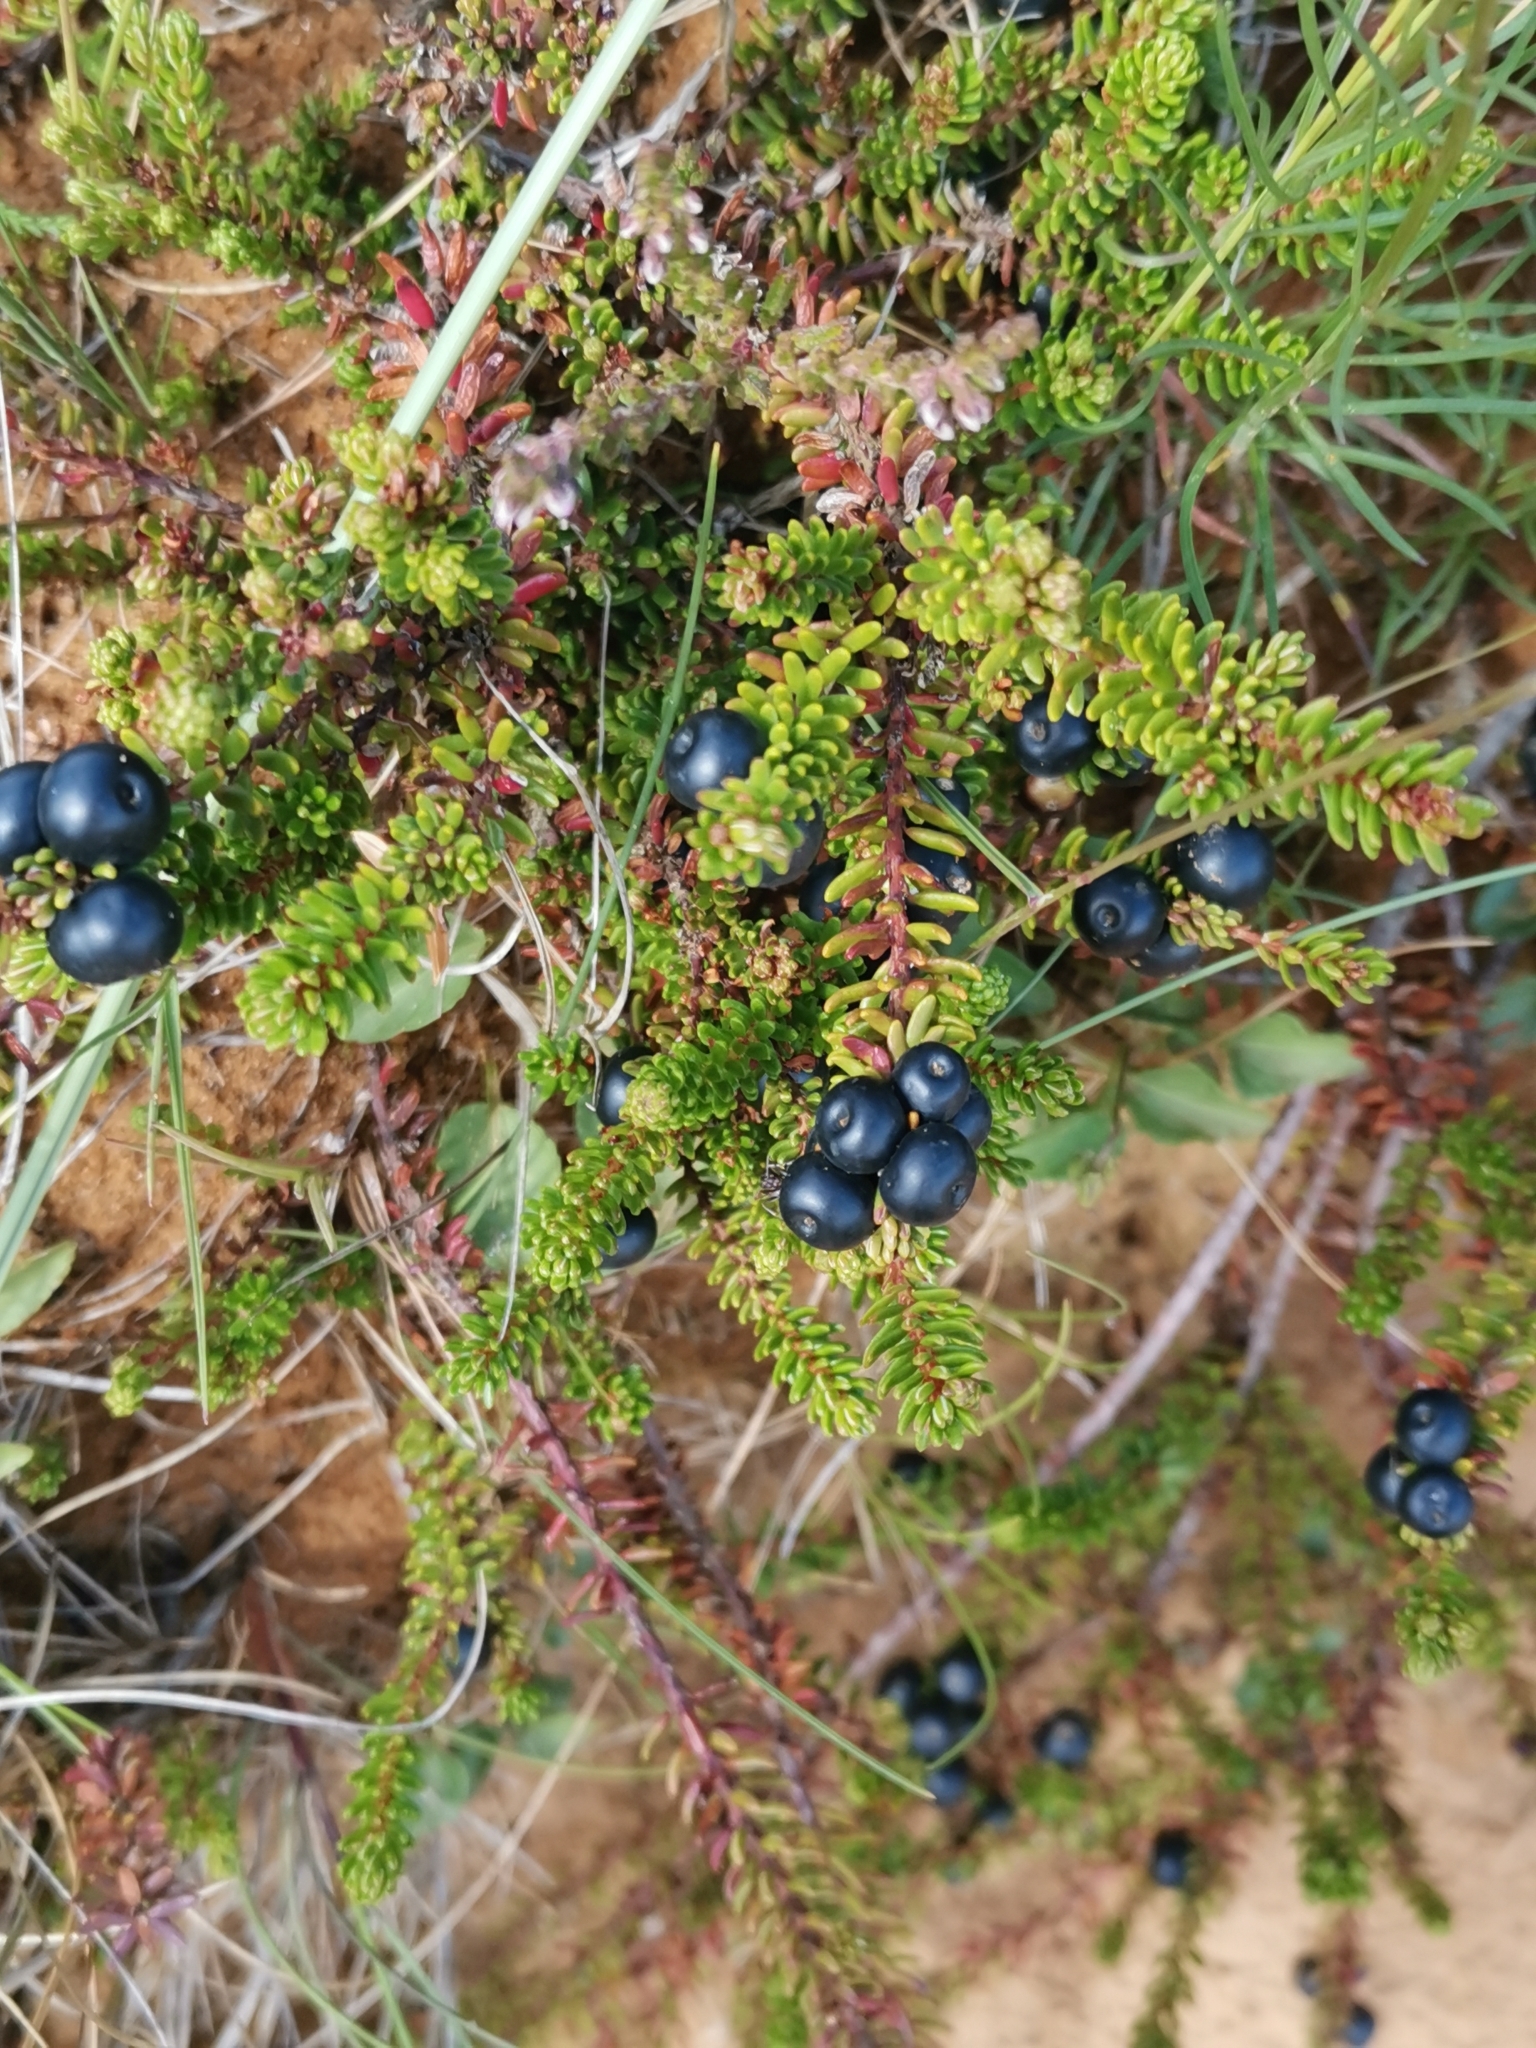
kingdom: Plantae
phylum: Tracheophyta
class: Magnoliopsida
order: Ericales
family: Ericaceae
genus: Empetrum
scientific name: Empetrum nigrum
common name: Black crowberry
